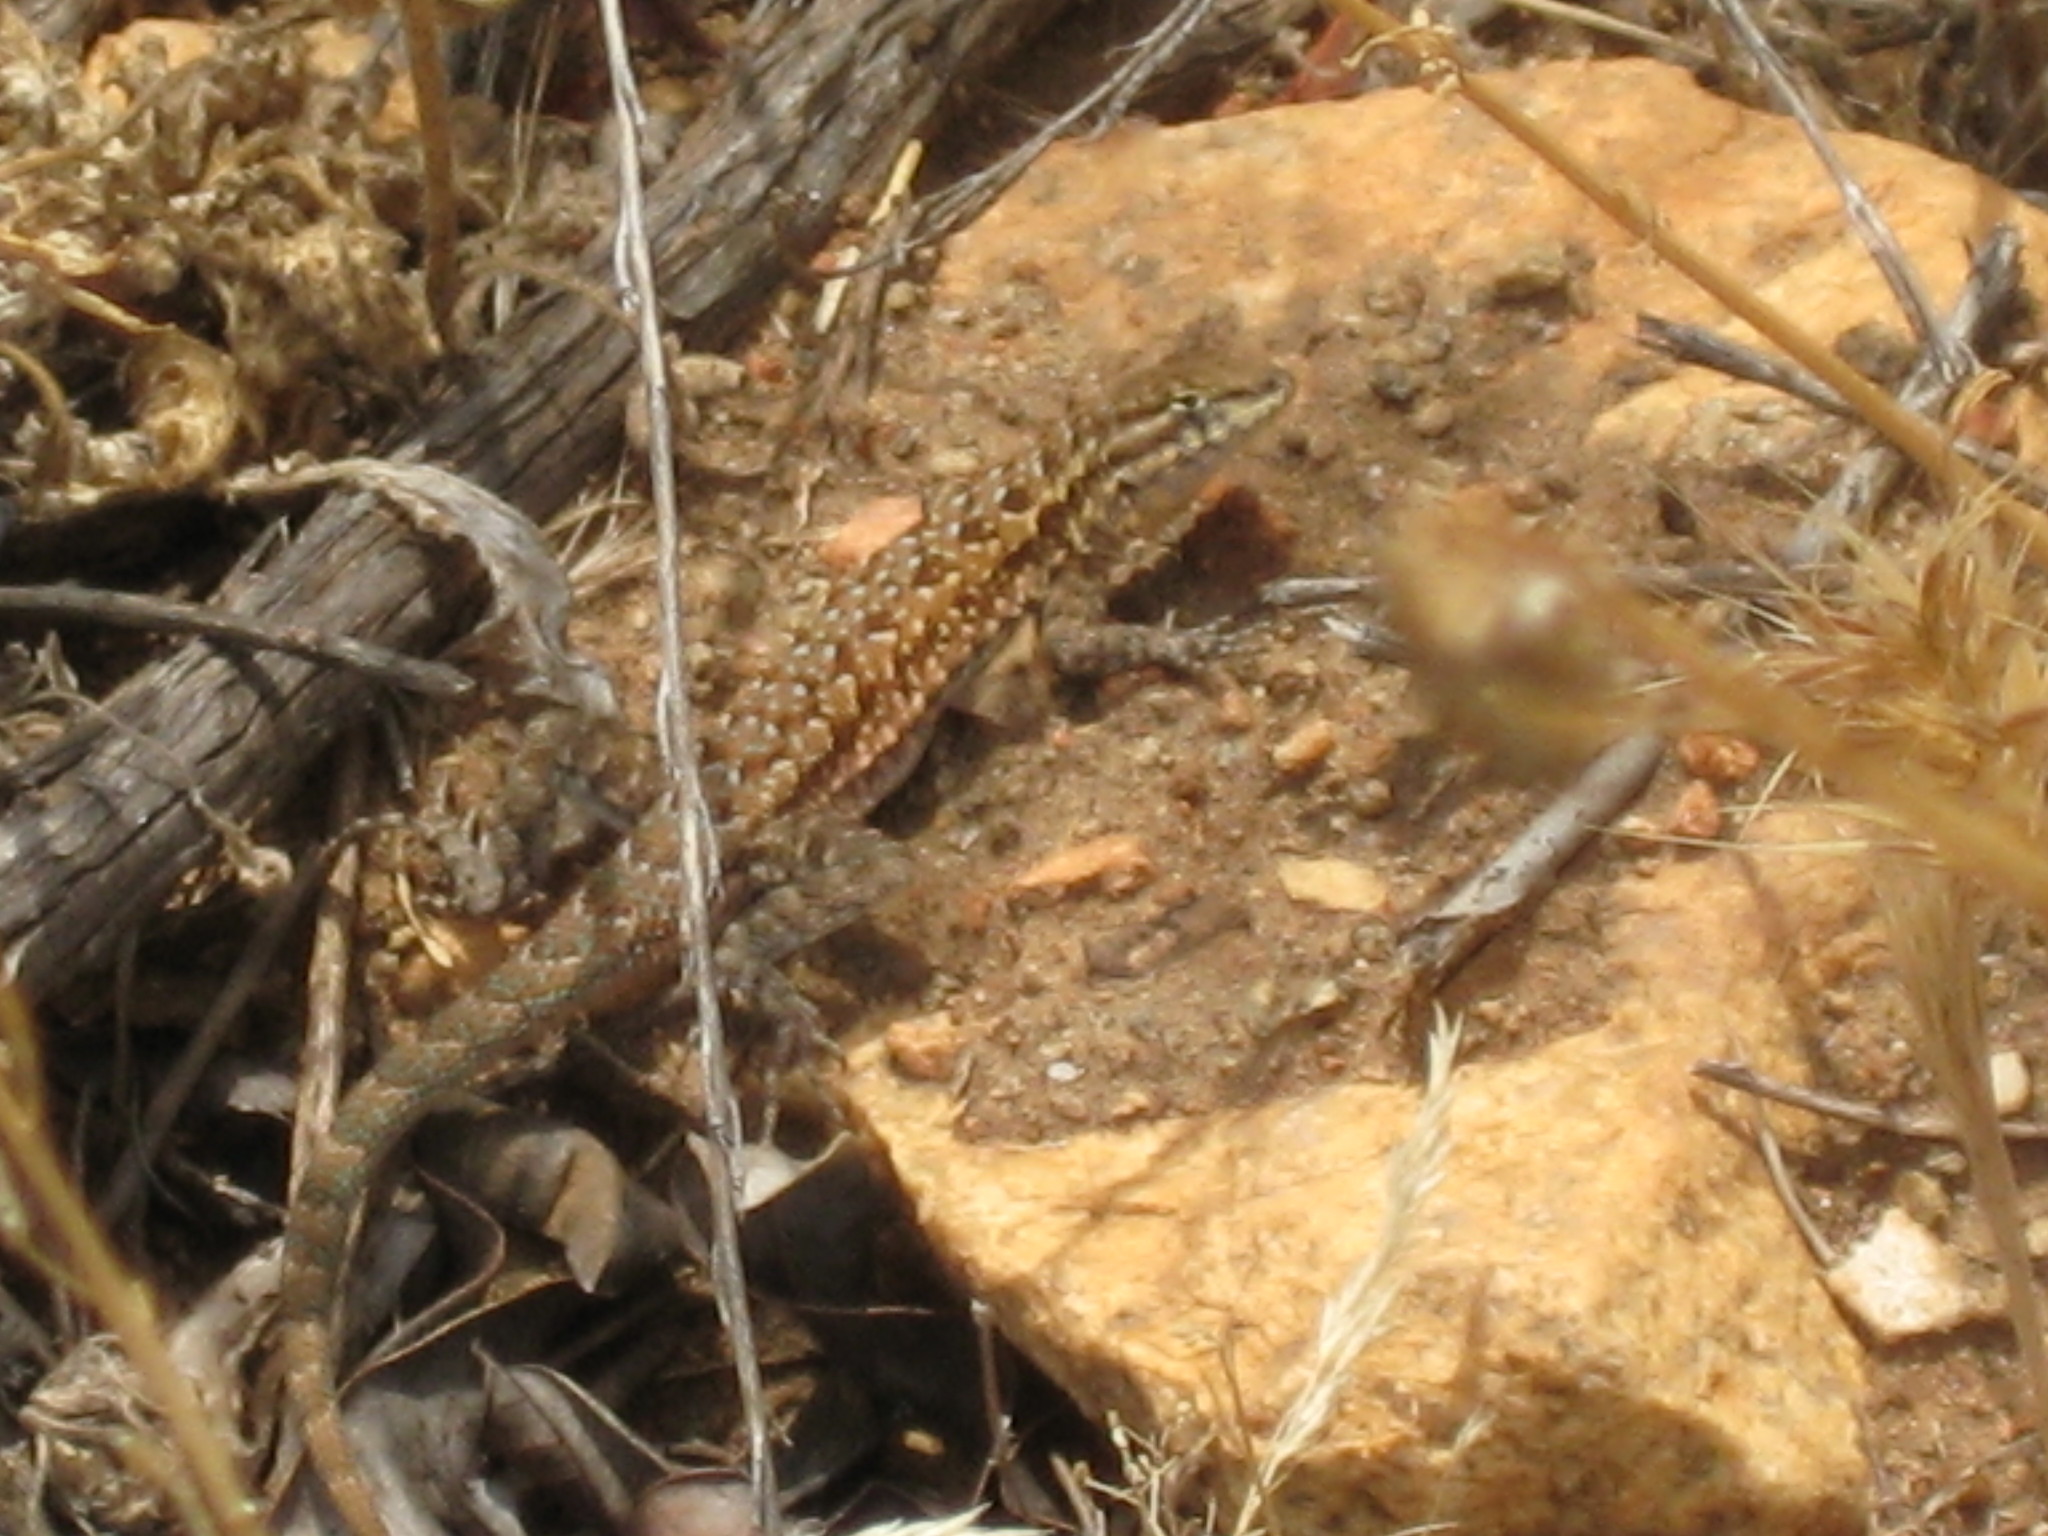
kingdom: Animalia
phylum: Chordata
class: Squamata
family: Phrynosomatidae
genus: Uta
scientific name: Uta stansburiana
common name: Side-blotched lizard
